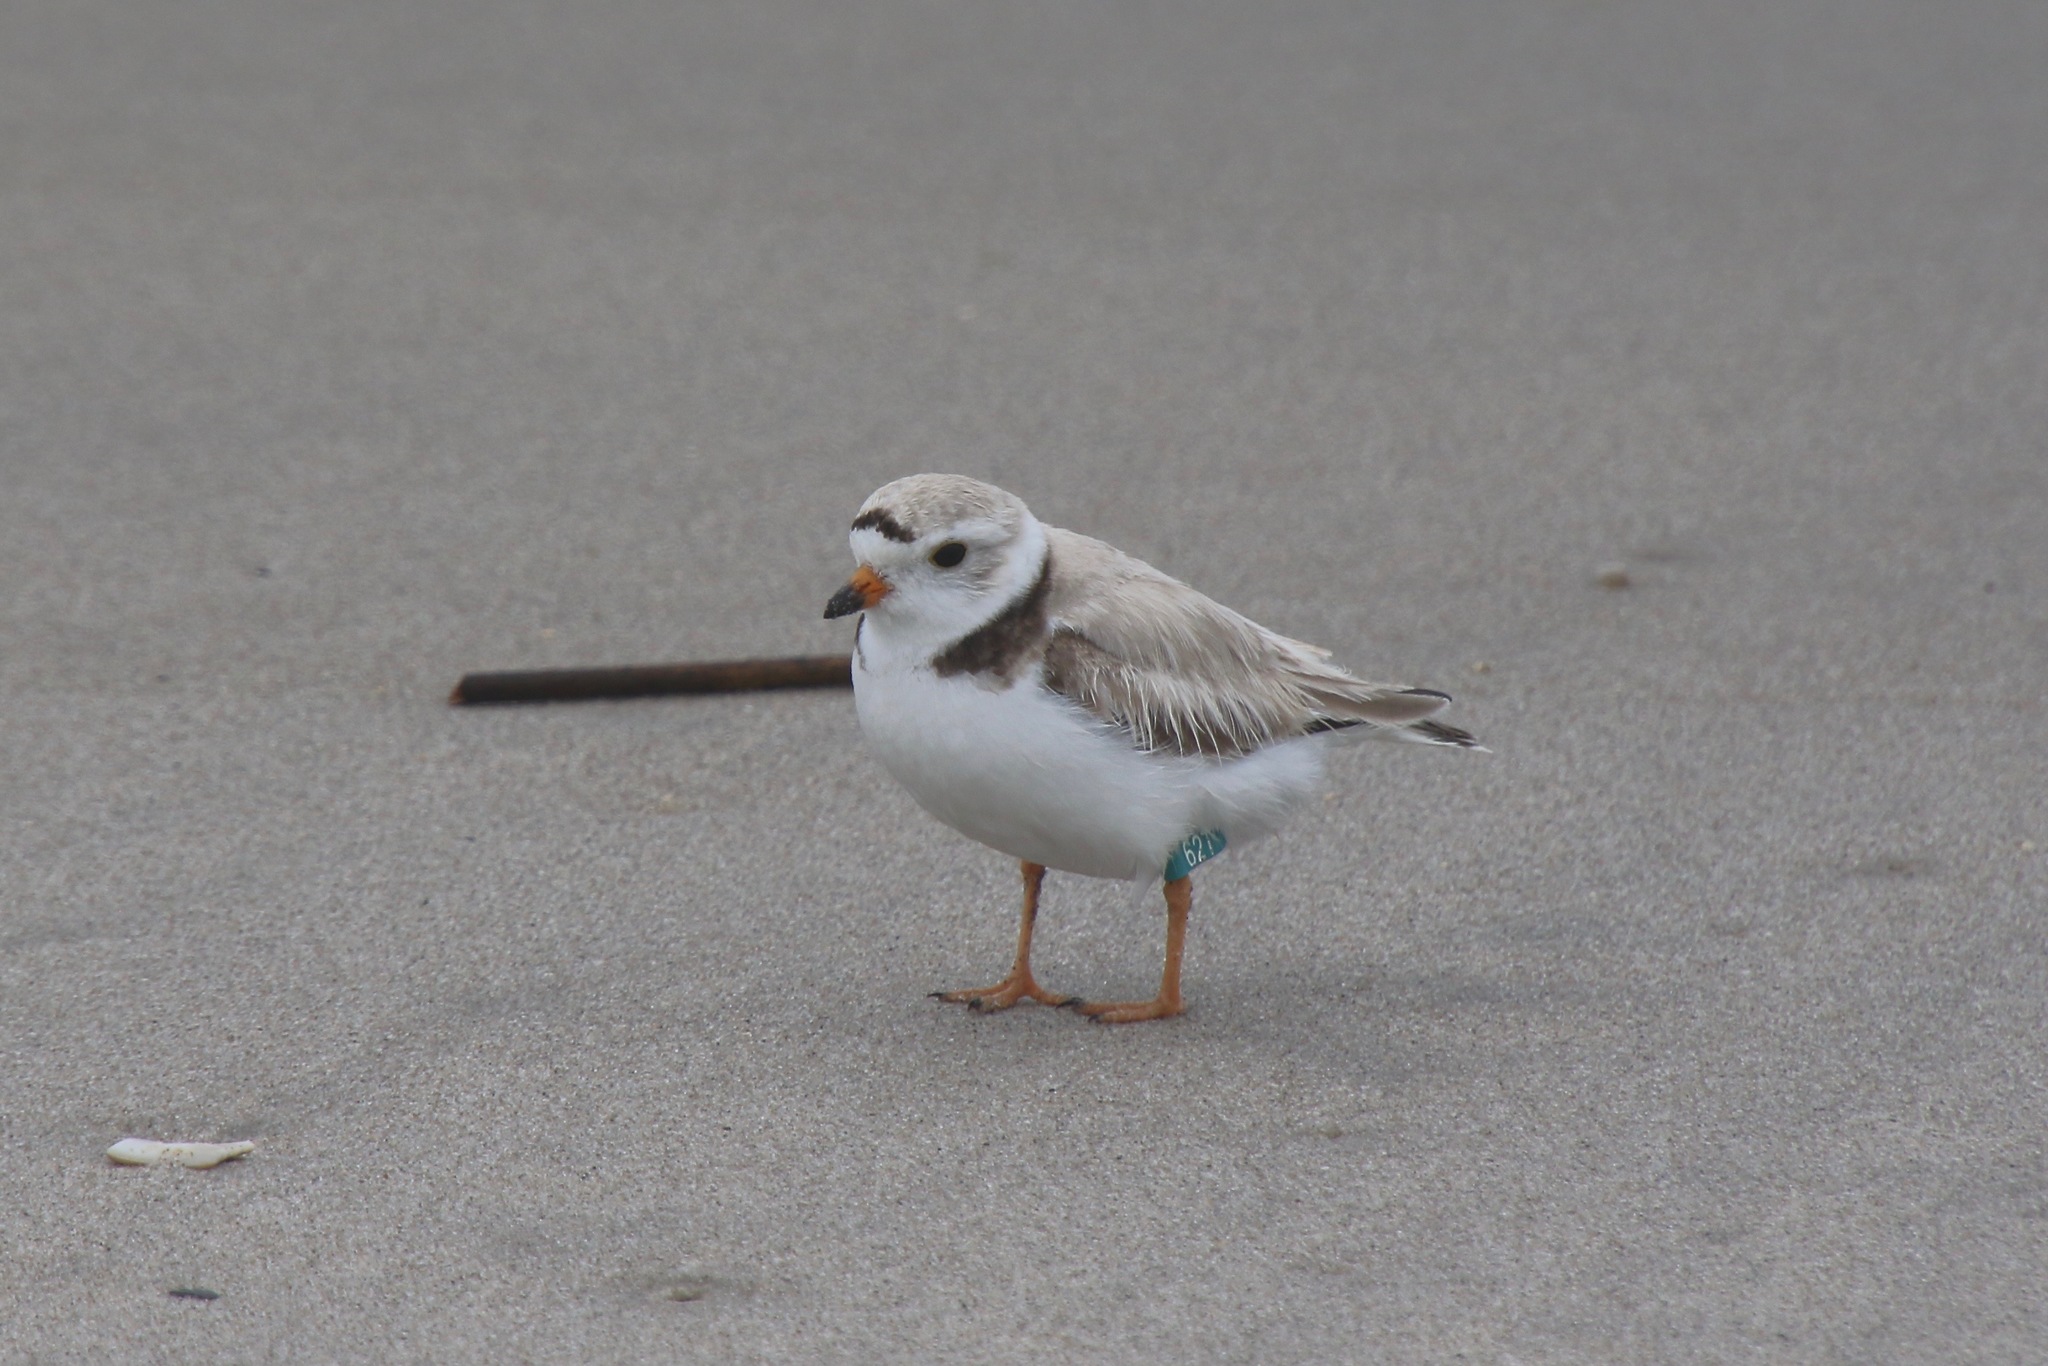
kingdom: Animalia
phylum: Chordata
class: Aves
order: Charadriiformes
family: Charadriidae
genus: Charadrius
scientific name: Charadrius melodus
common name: Piping plover
